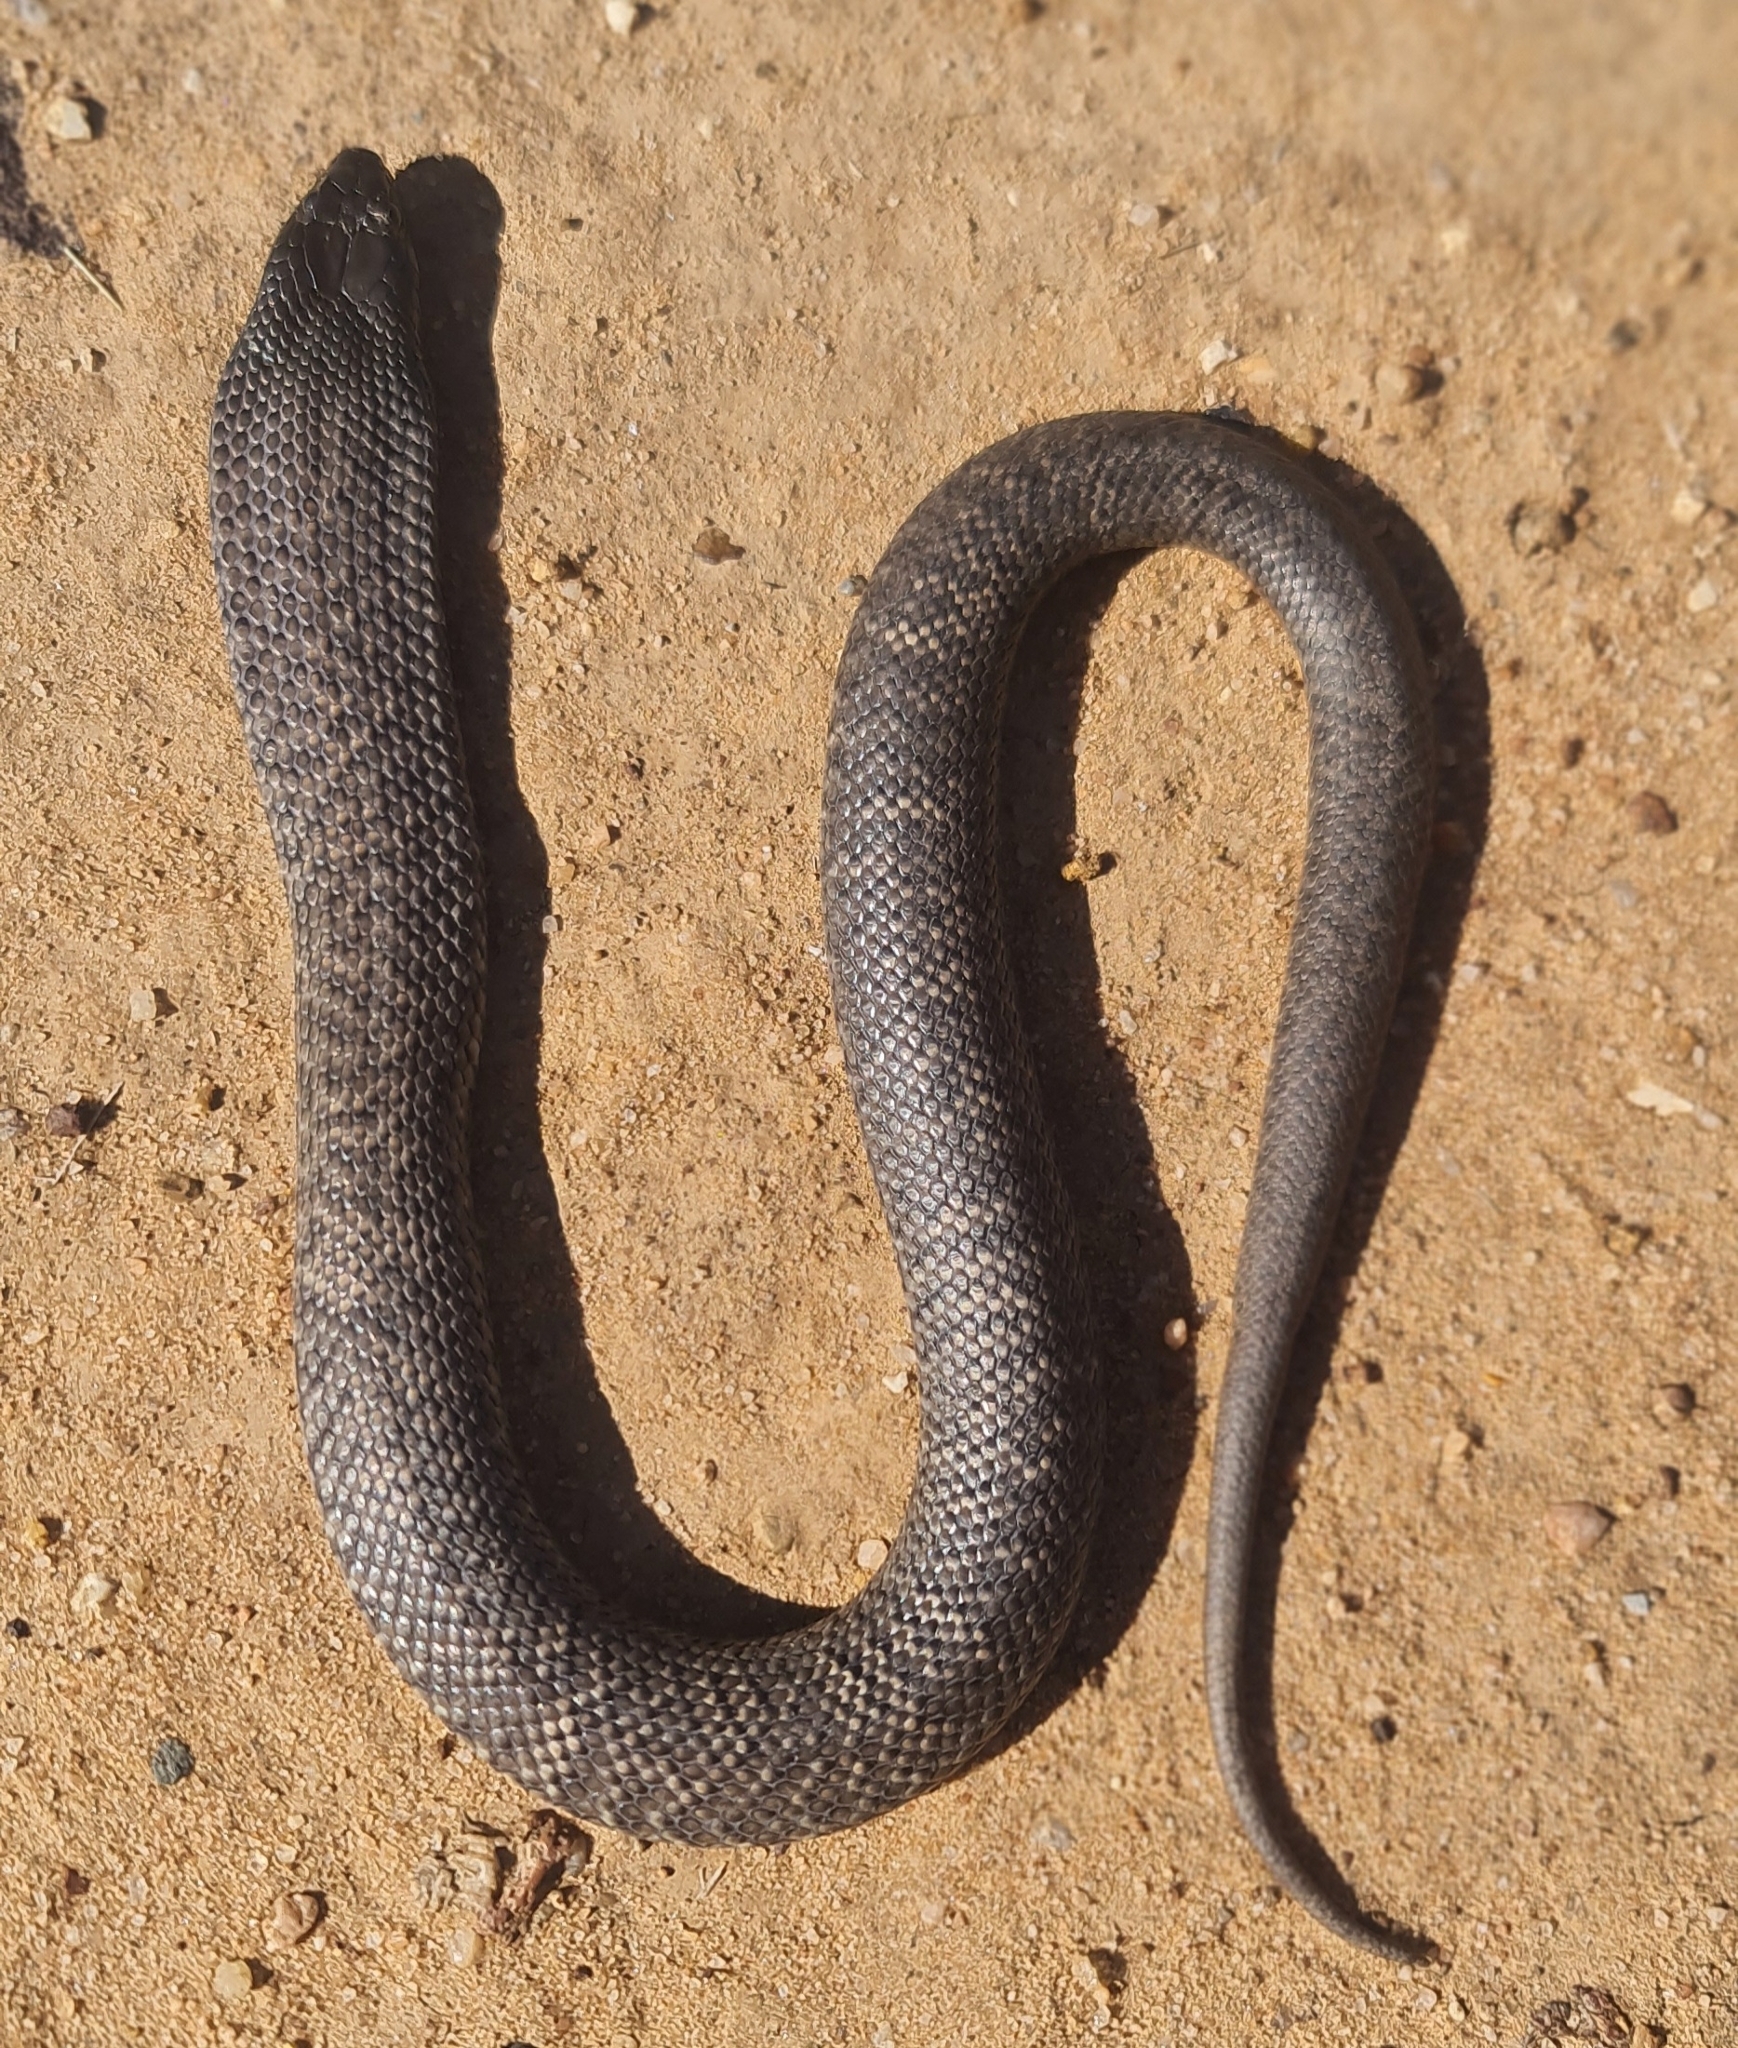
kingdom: Animalia
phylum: Chordata
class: Squamata
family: Elapidae
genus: Pseudechis
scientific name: Pseudechis guttatus
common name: Blue-bellied black snake
